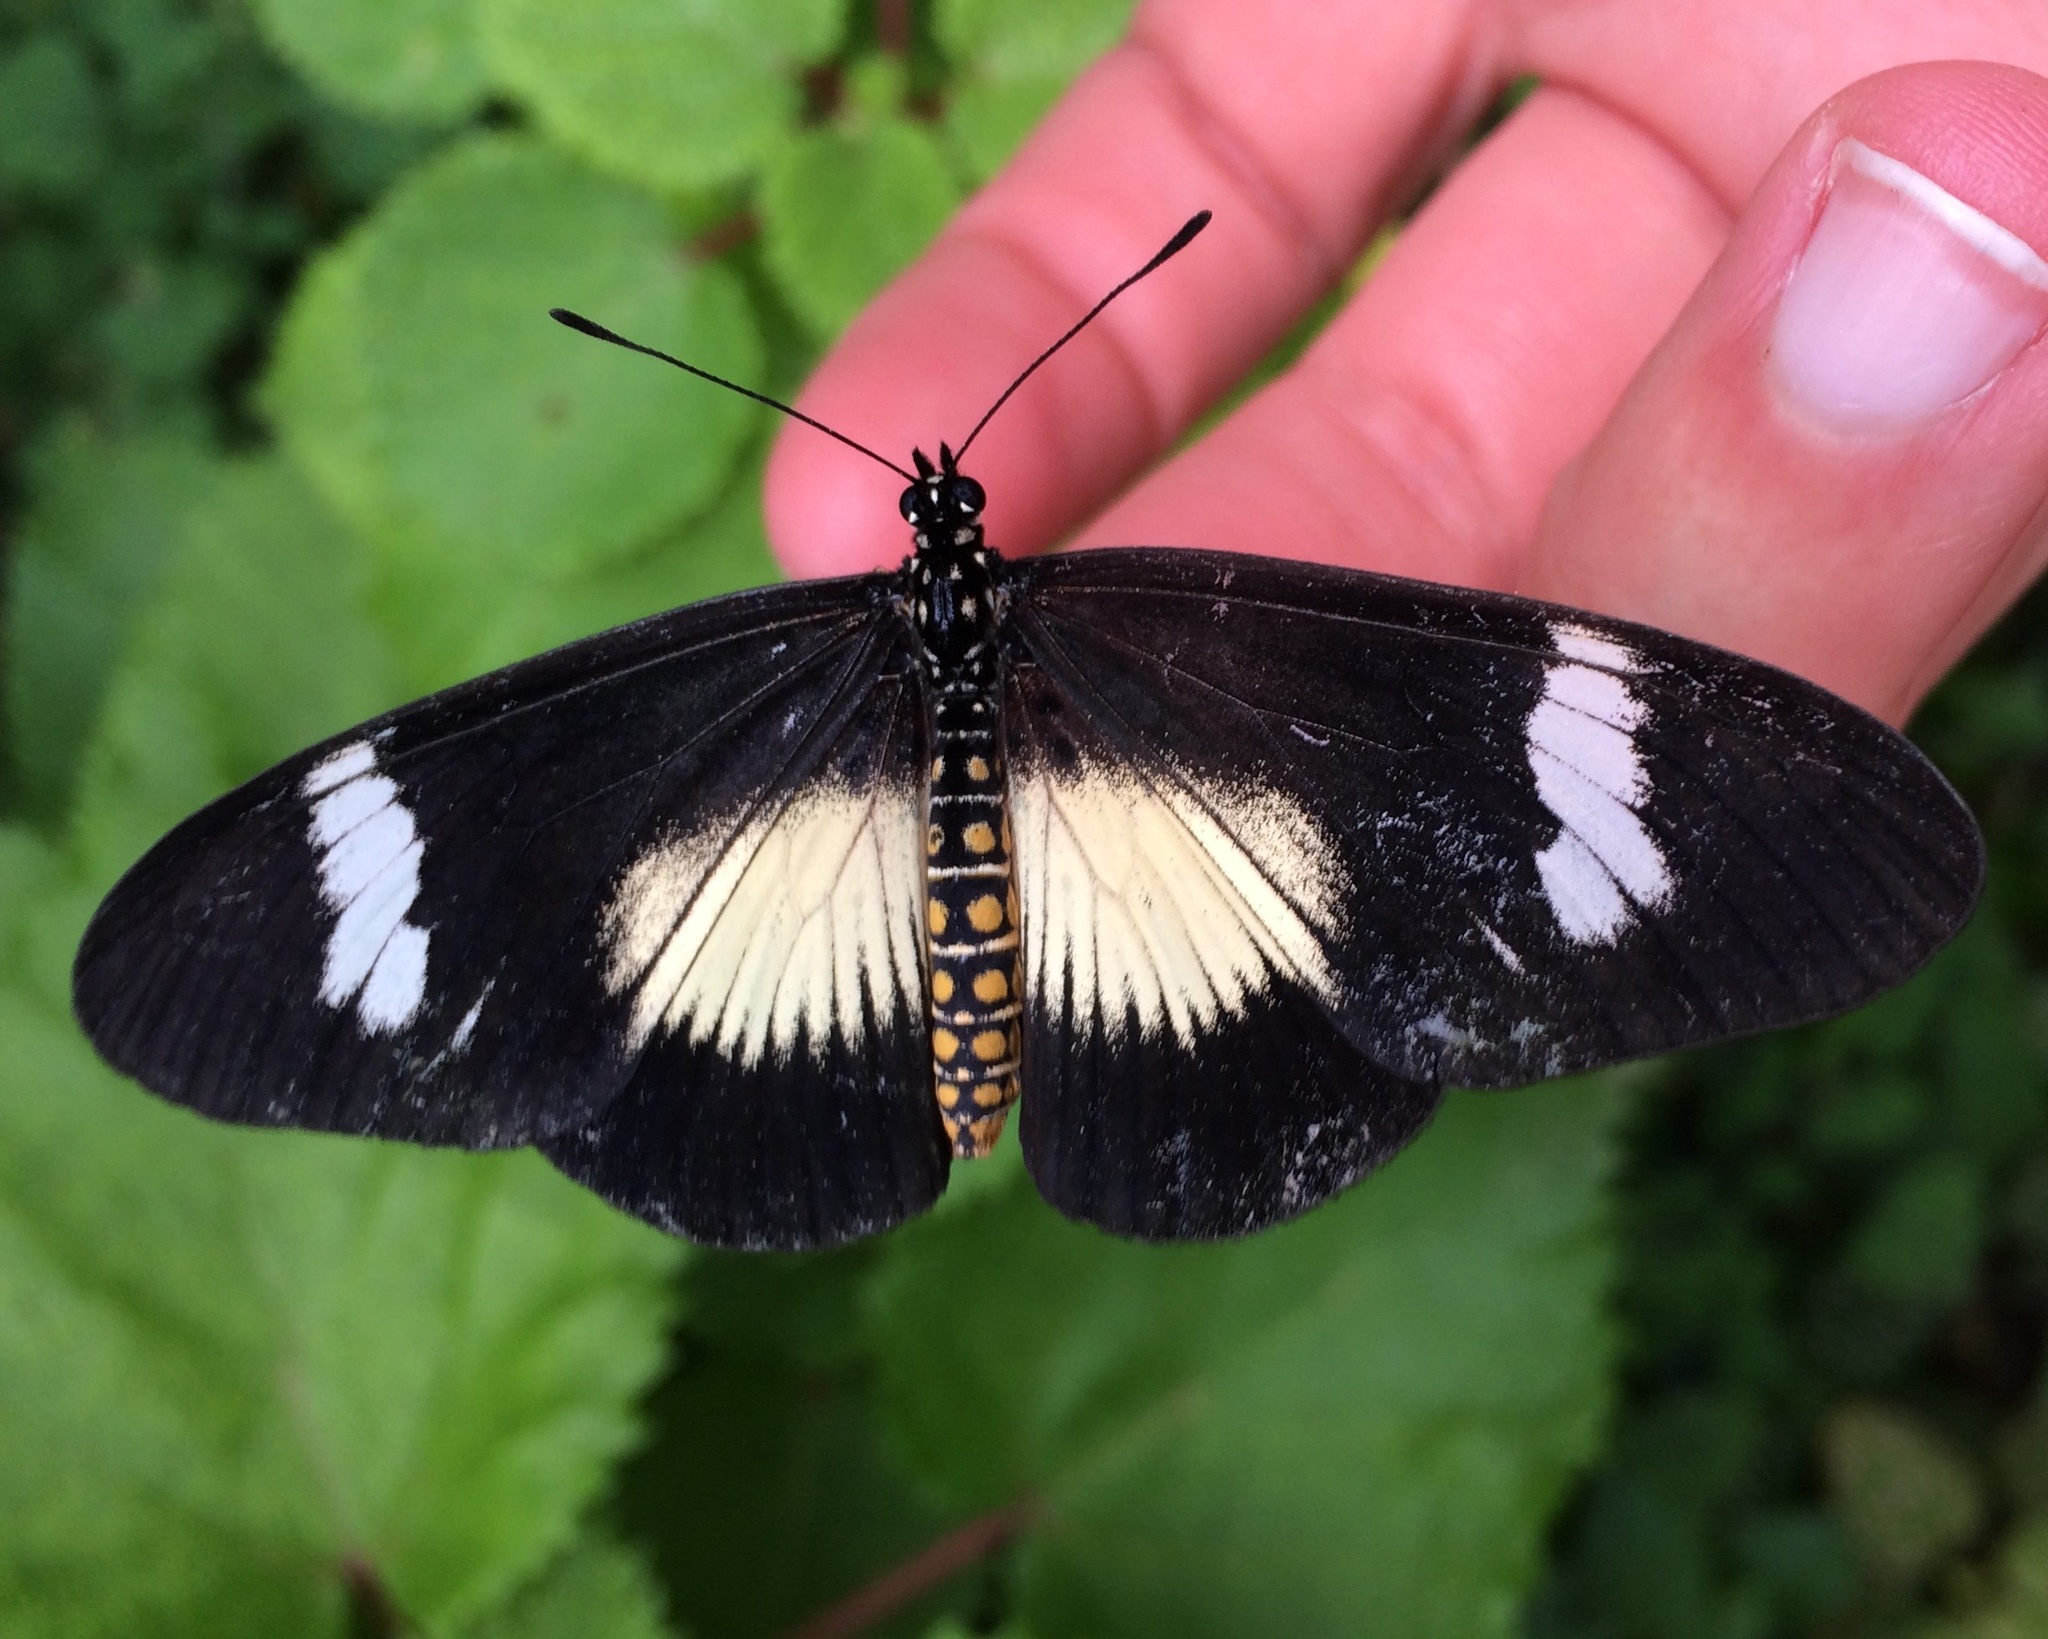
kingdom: Animalia
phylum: Arthropoda
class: Insecta
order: Lepidoptera
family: Nymphalidae
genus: Acraea
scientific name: Acraea esebria
